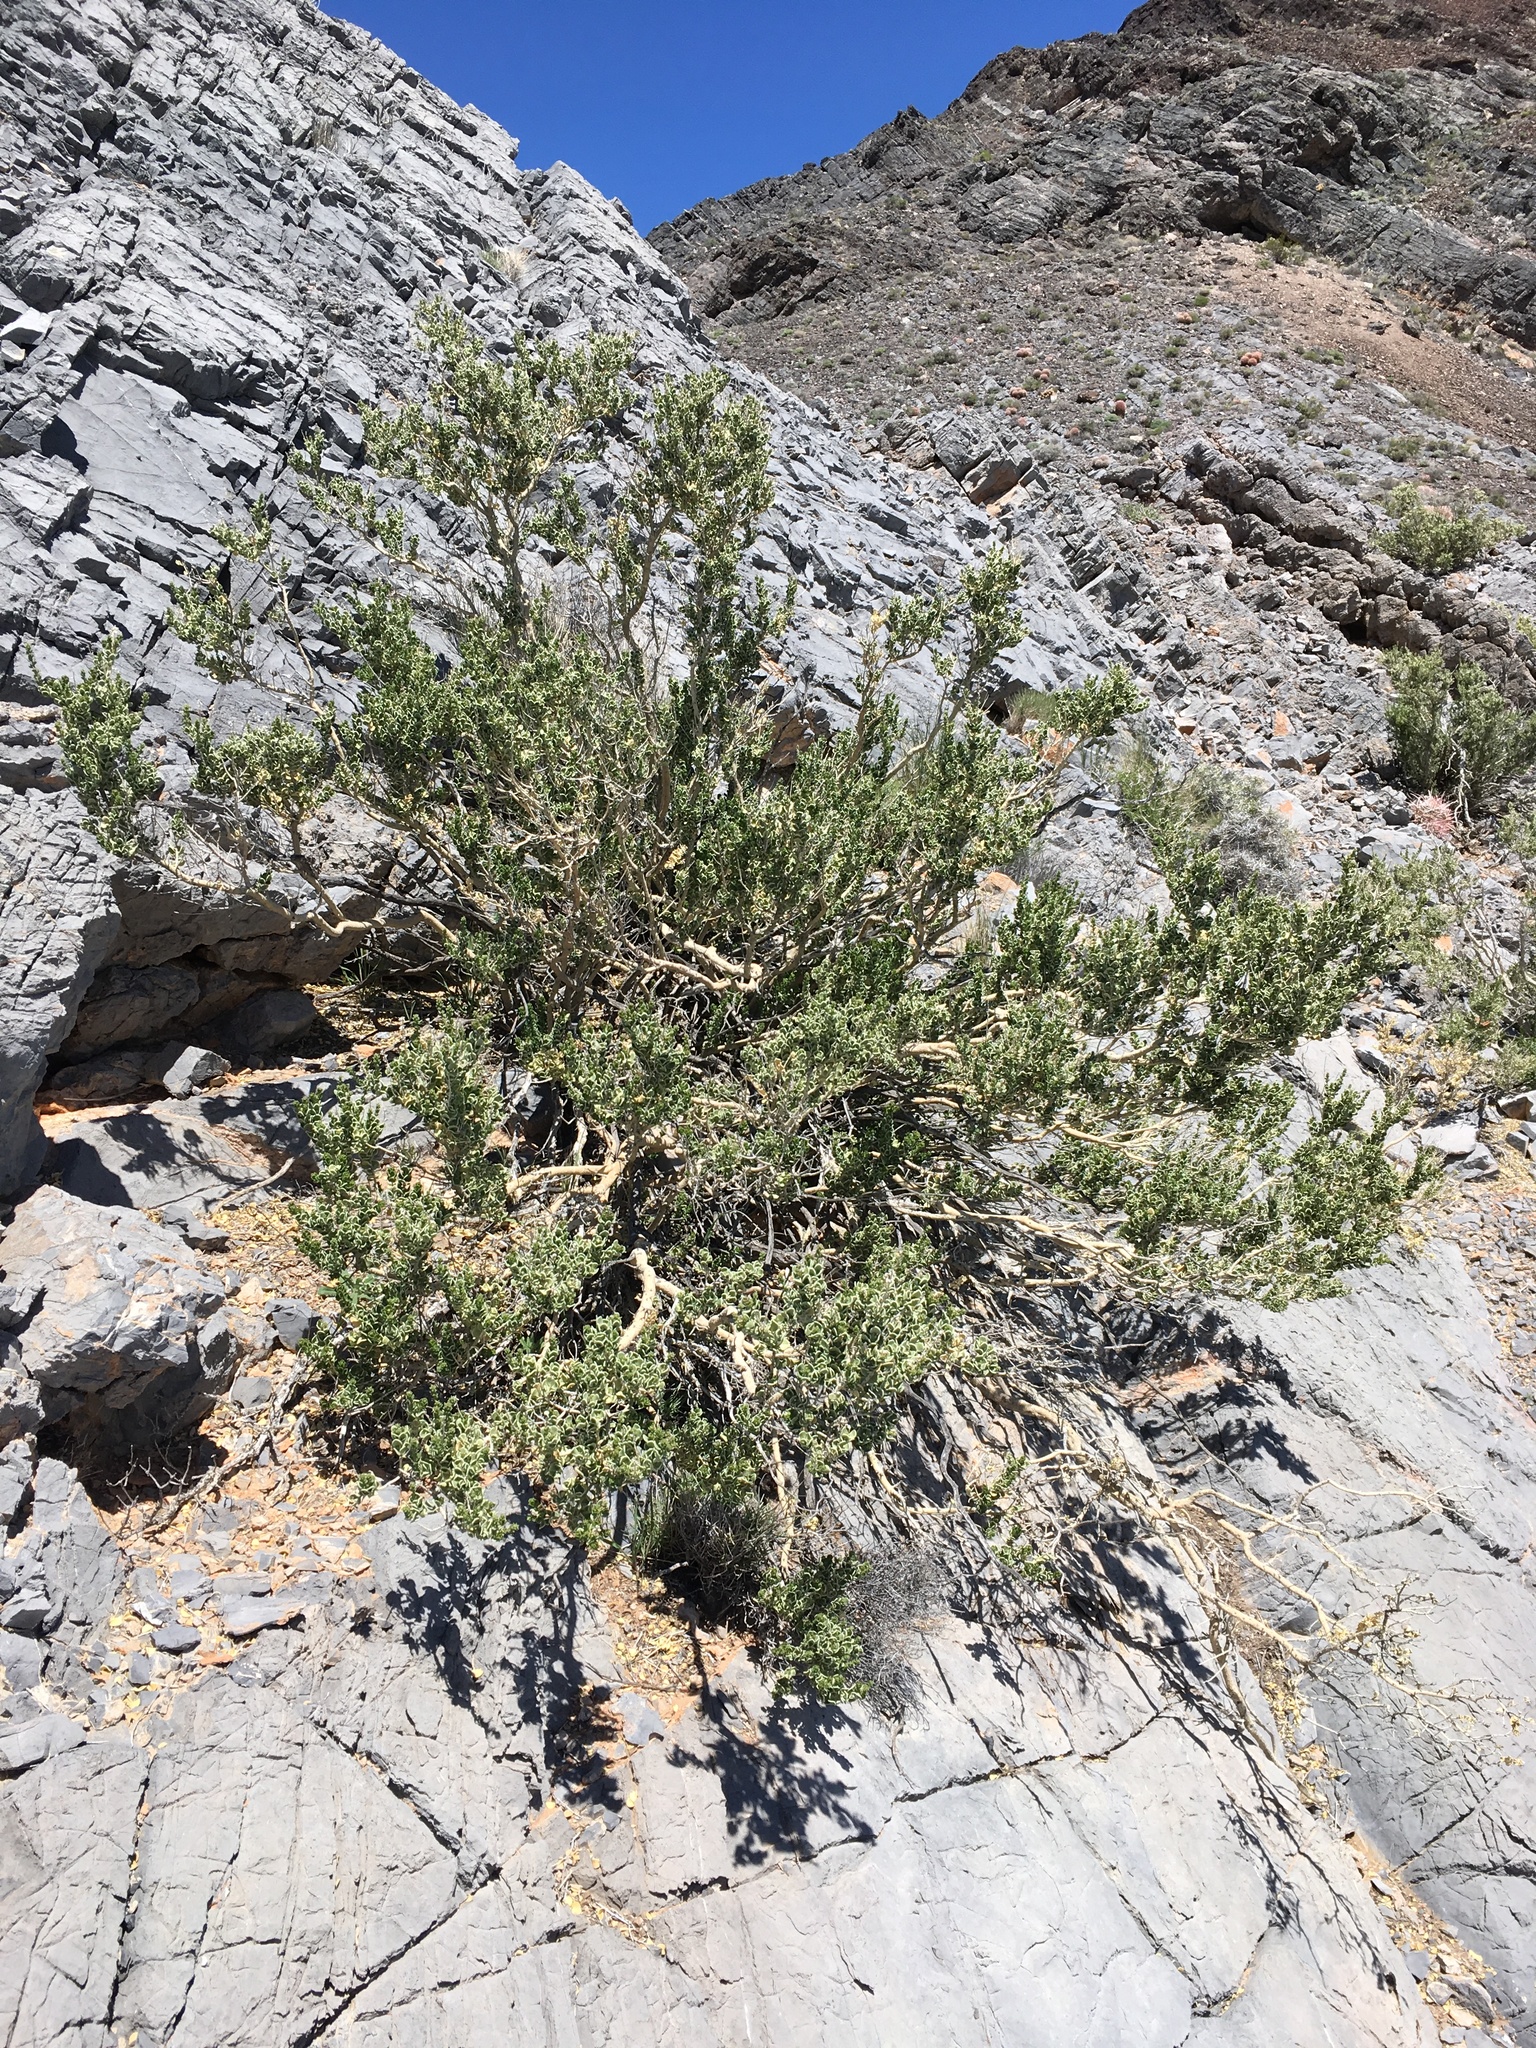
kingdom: Plantae
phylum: Tracheophyta
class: Magnoliopsida
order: Celastrales
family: Celastraceae
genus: Mortonia
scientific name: Mortonia utahensis
